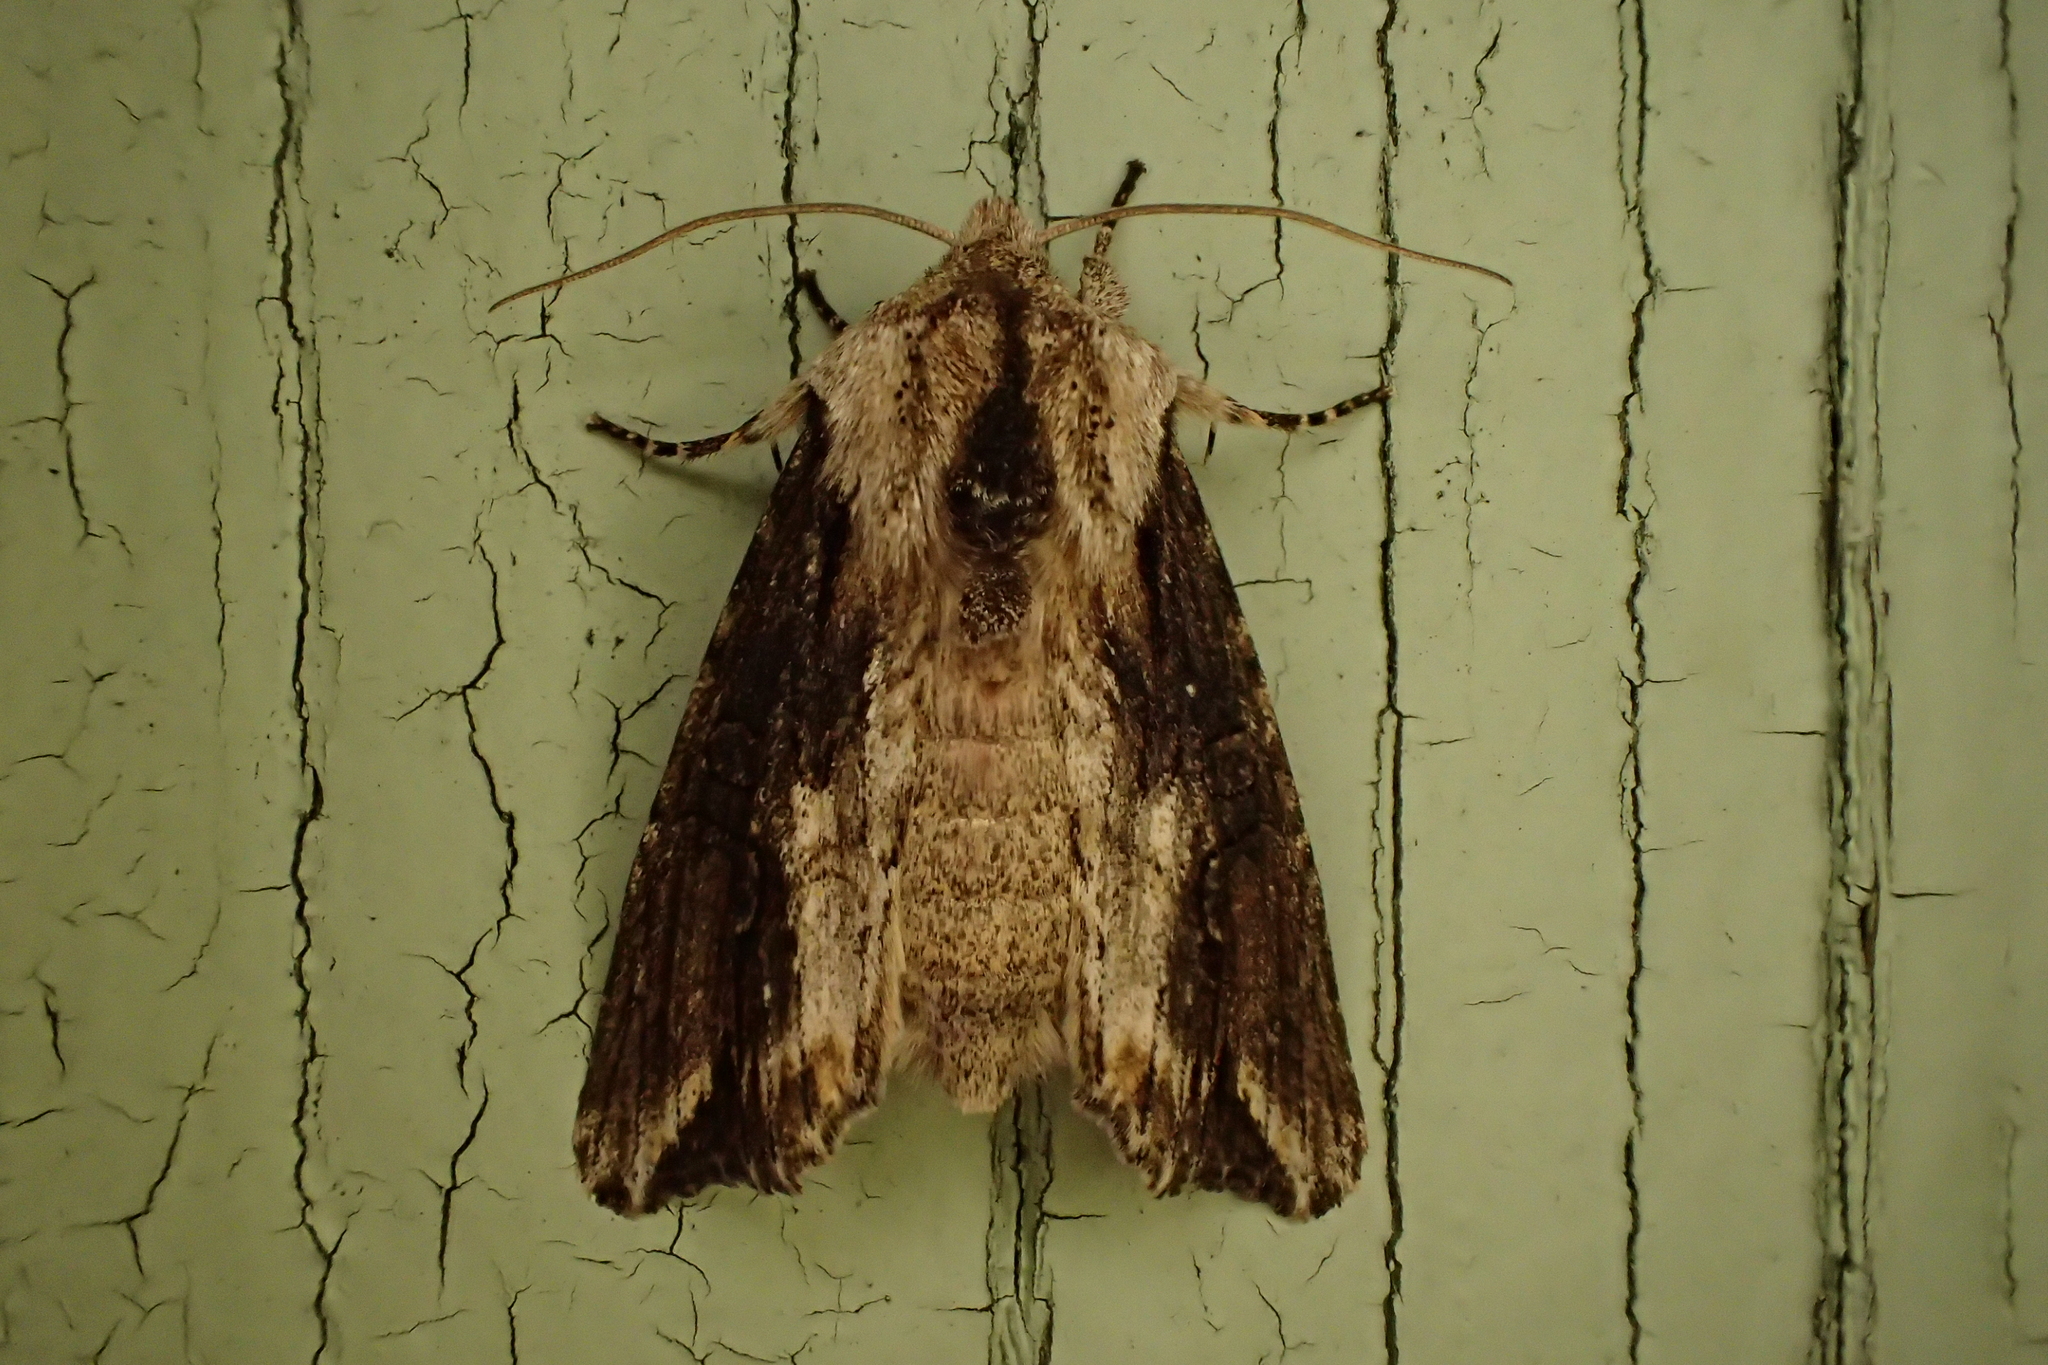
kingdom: Animalia
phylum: Arthropoda
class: Insecta
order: Lepidoptera
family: Noctuidae
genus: Egira
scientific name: Egira conspicillaris
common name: Silver cloud
